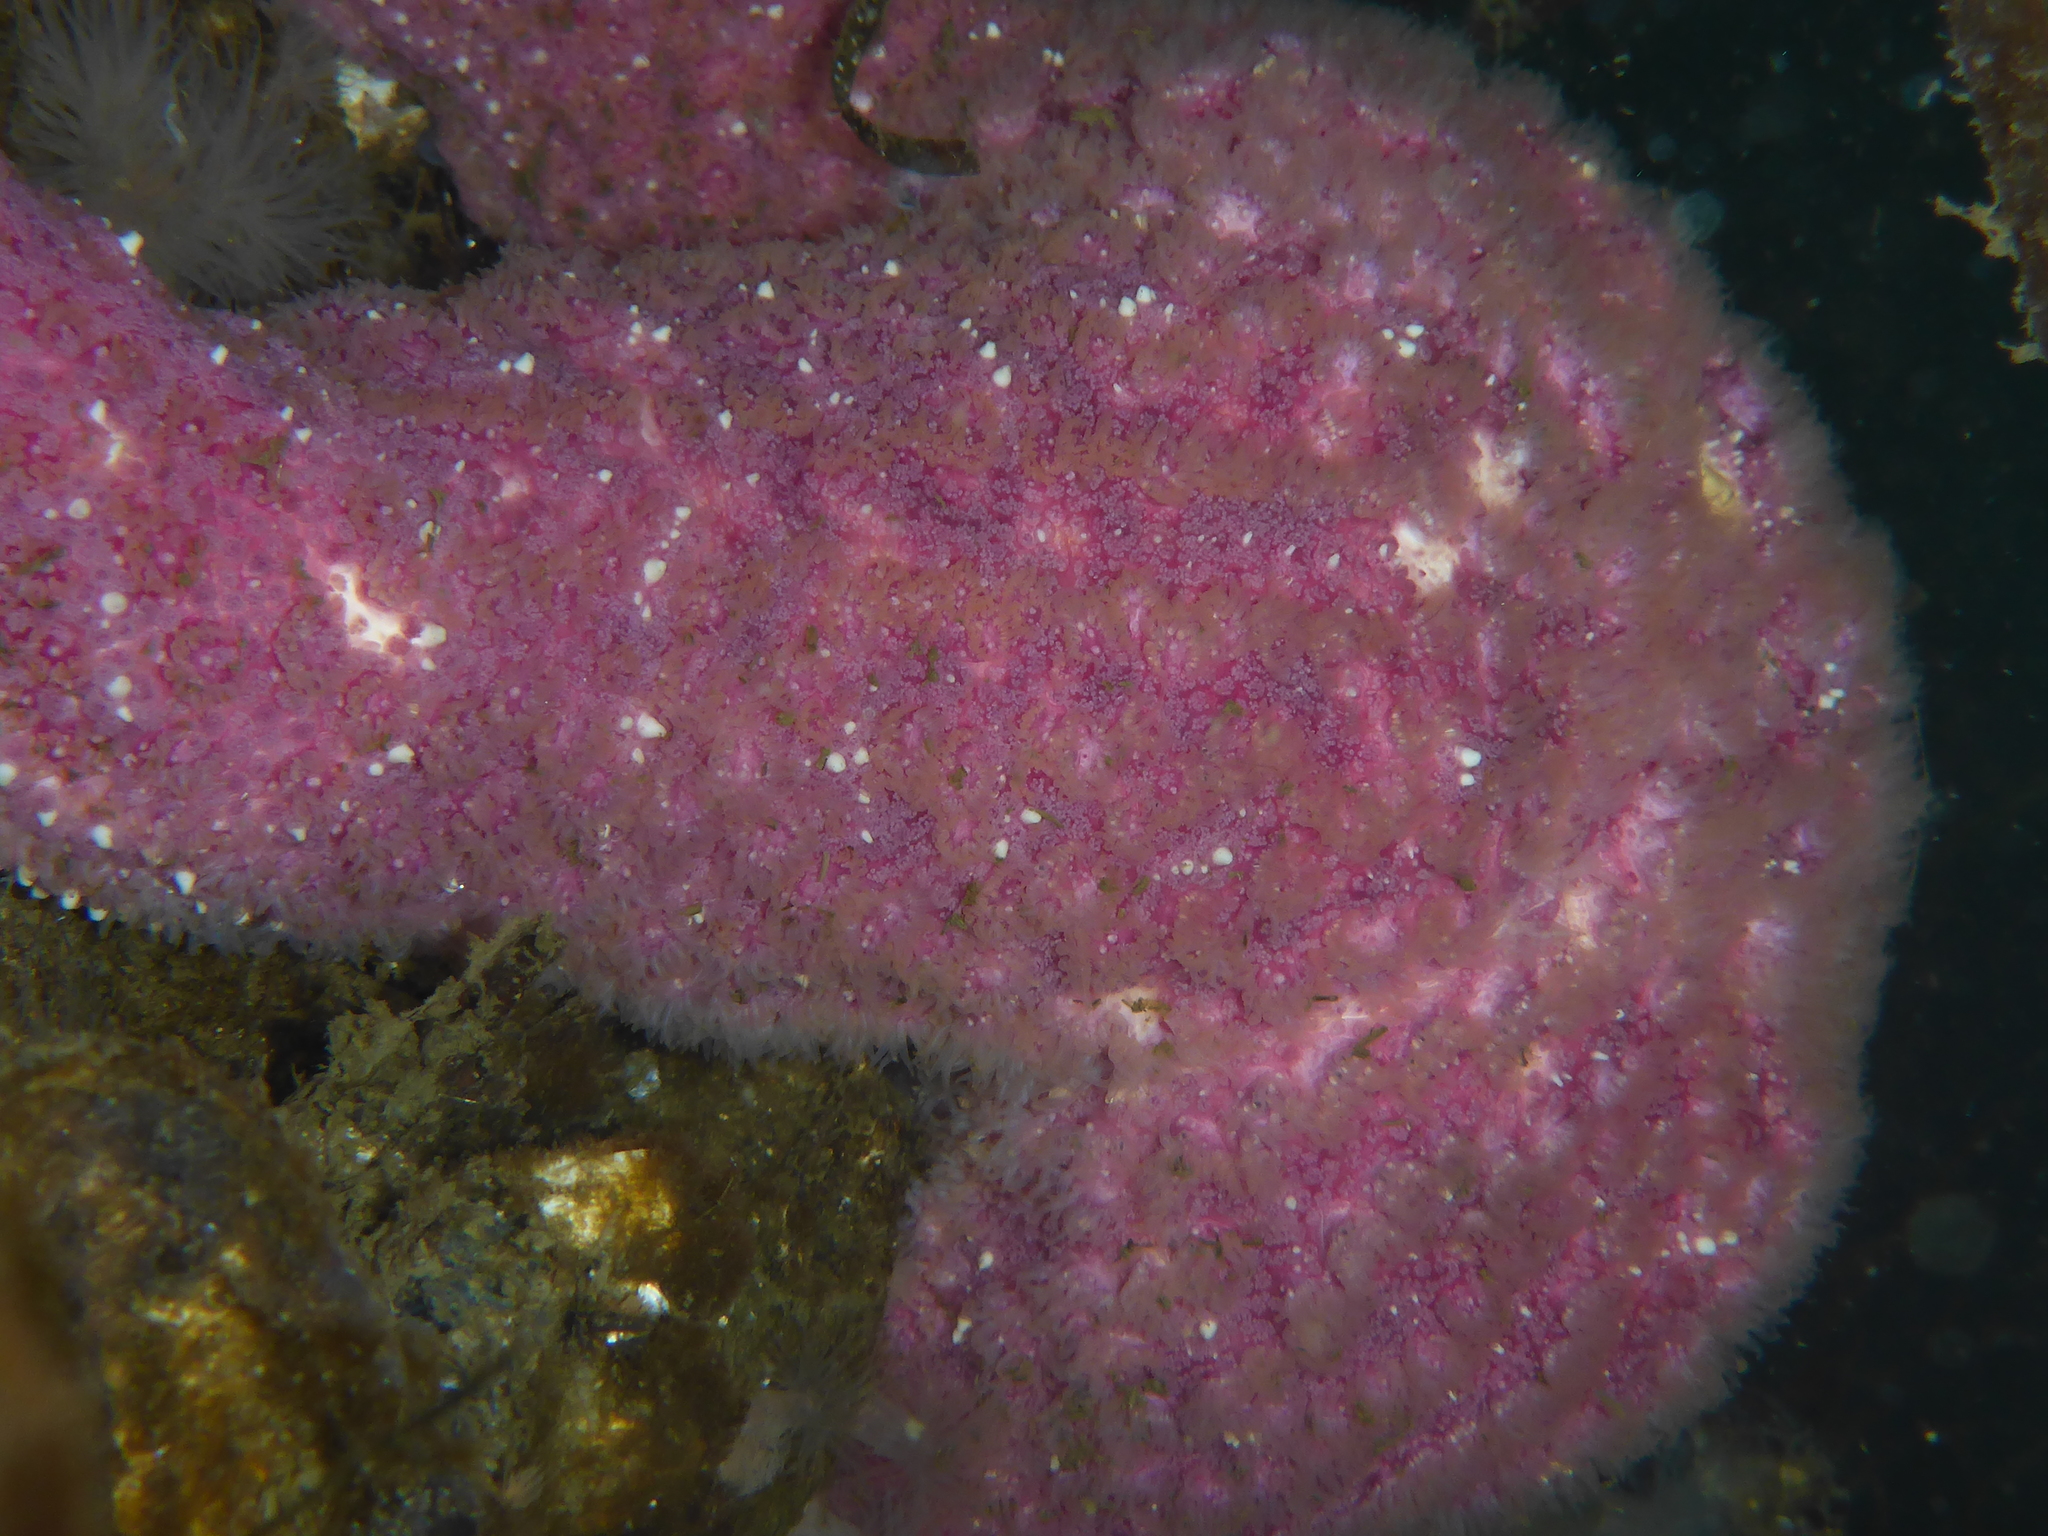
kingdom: Animalia
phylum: Echinodermata
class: Asteroidea
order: Forcipulatida
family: Asteriidae
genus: Pisaster
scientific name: Pisaster ochraceus
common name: Ochre stars
